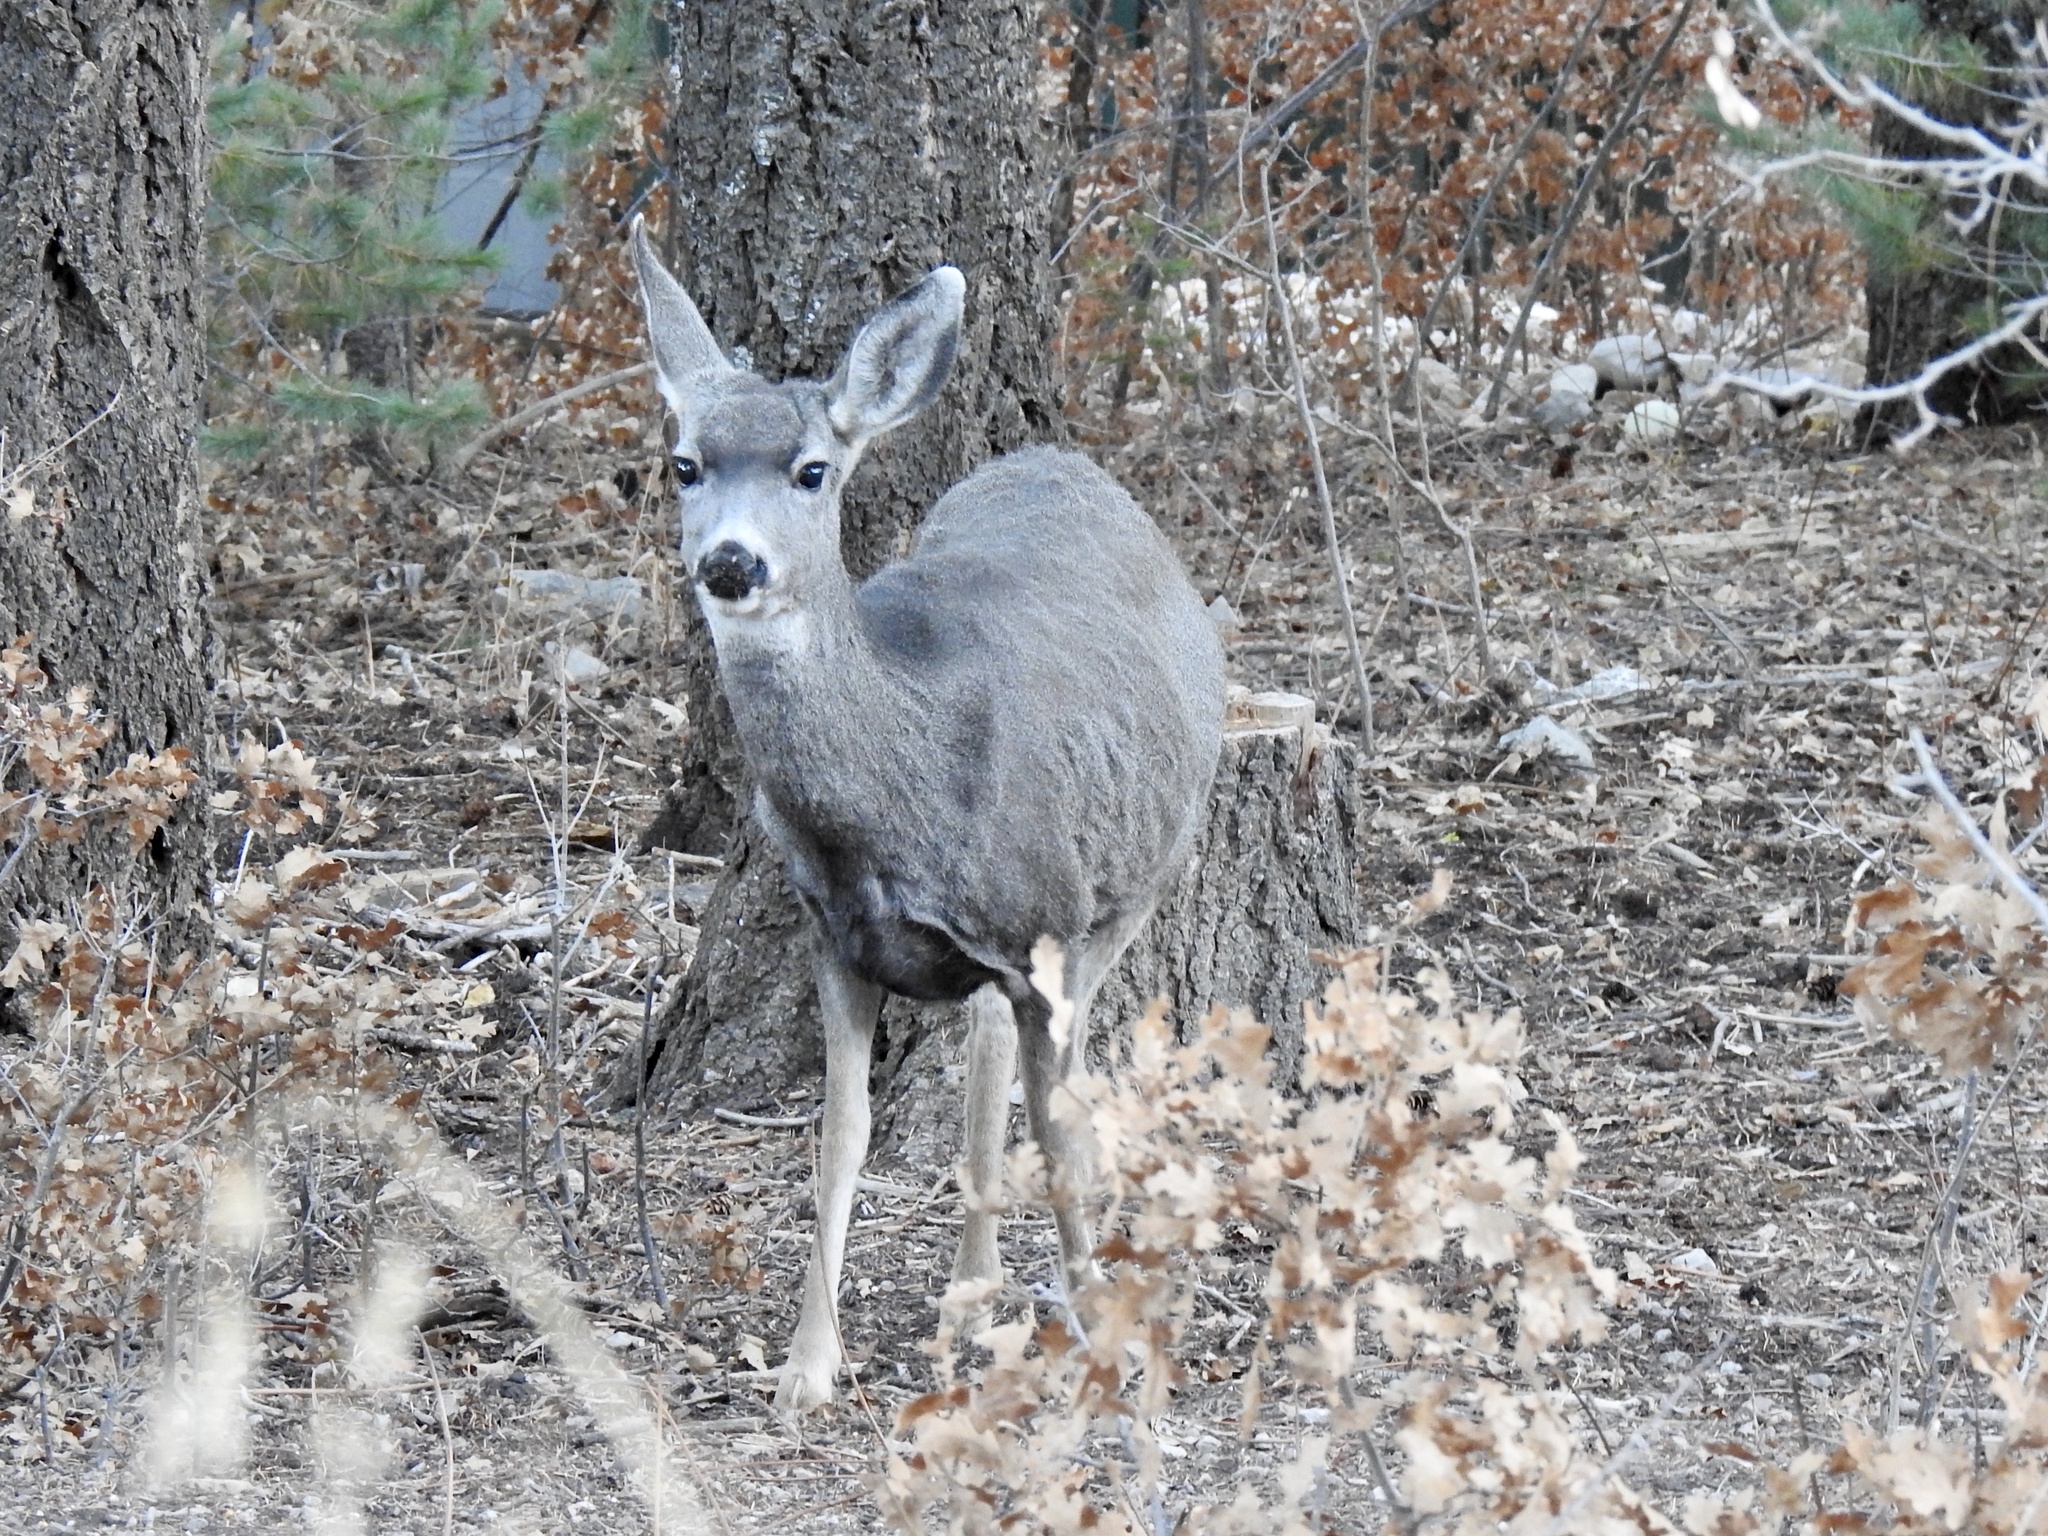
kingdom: Animalia
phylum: Chordata
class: Mammalia
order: Artiodactyla
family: Cervidae
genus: Odocoileus
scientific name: Odocoileus hemionus
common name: Mule deer
